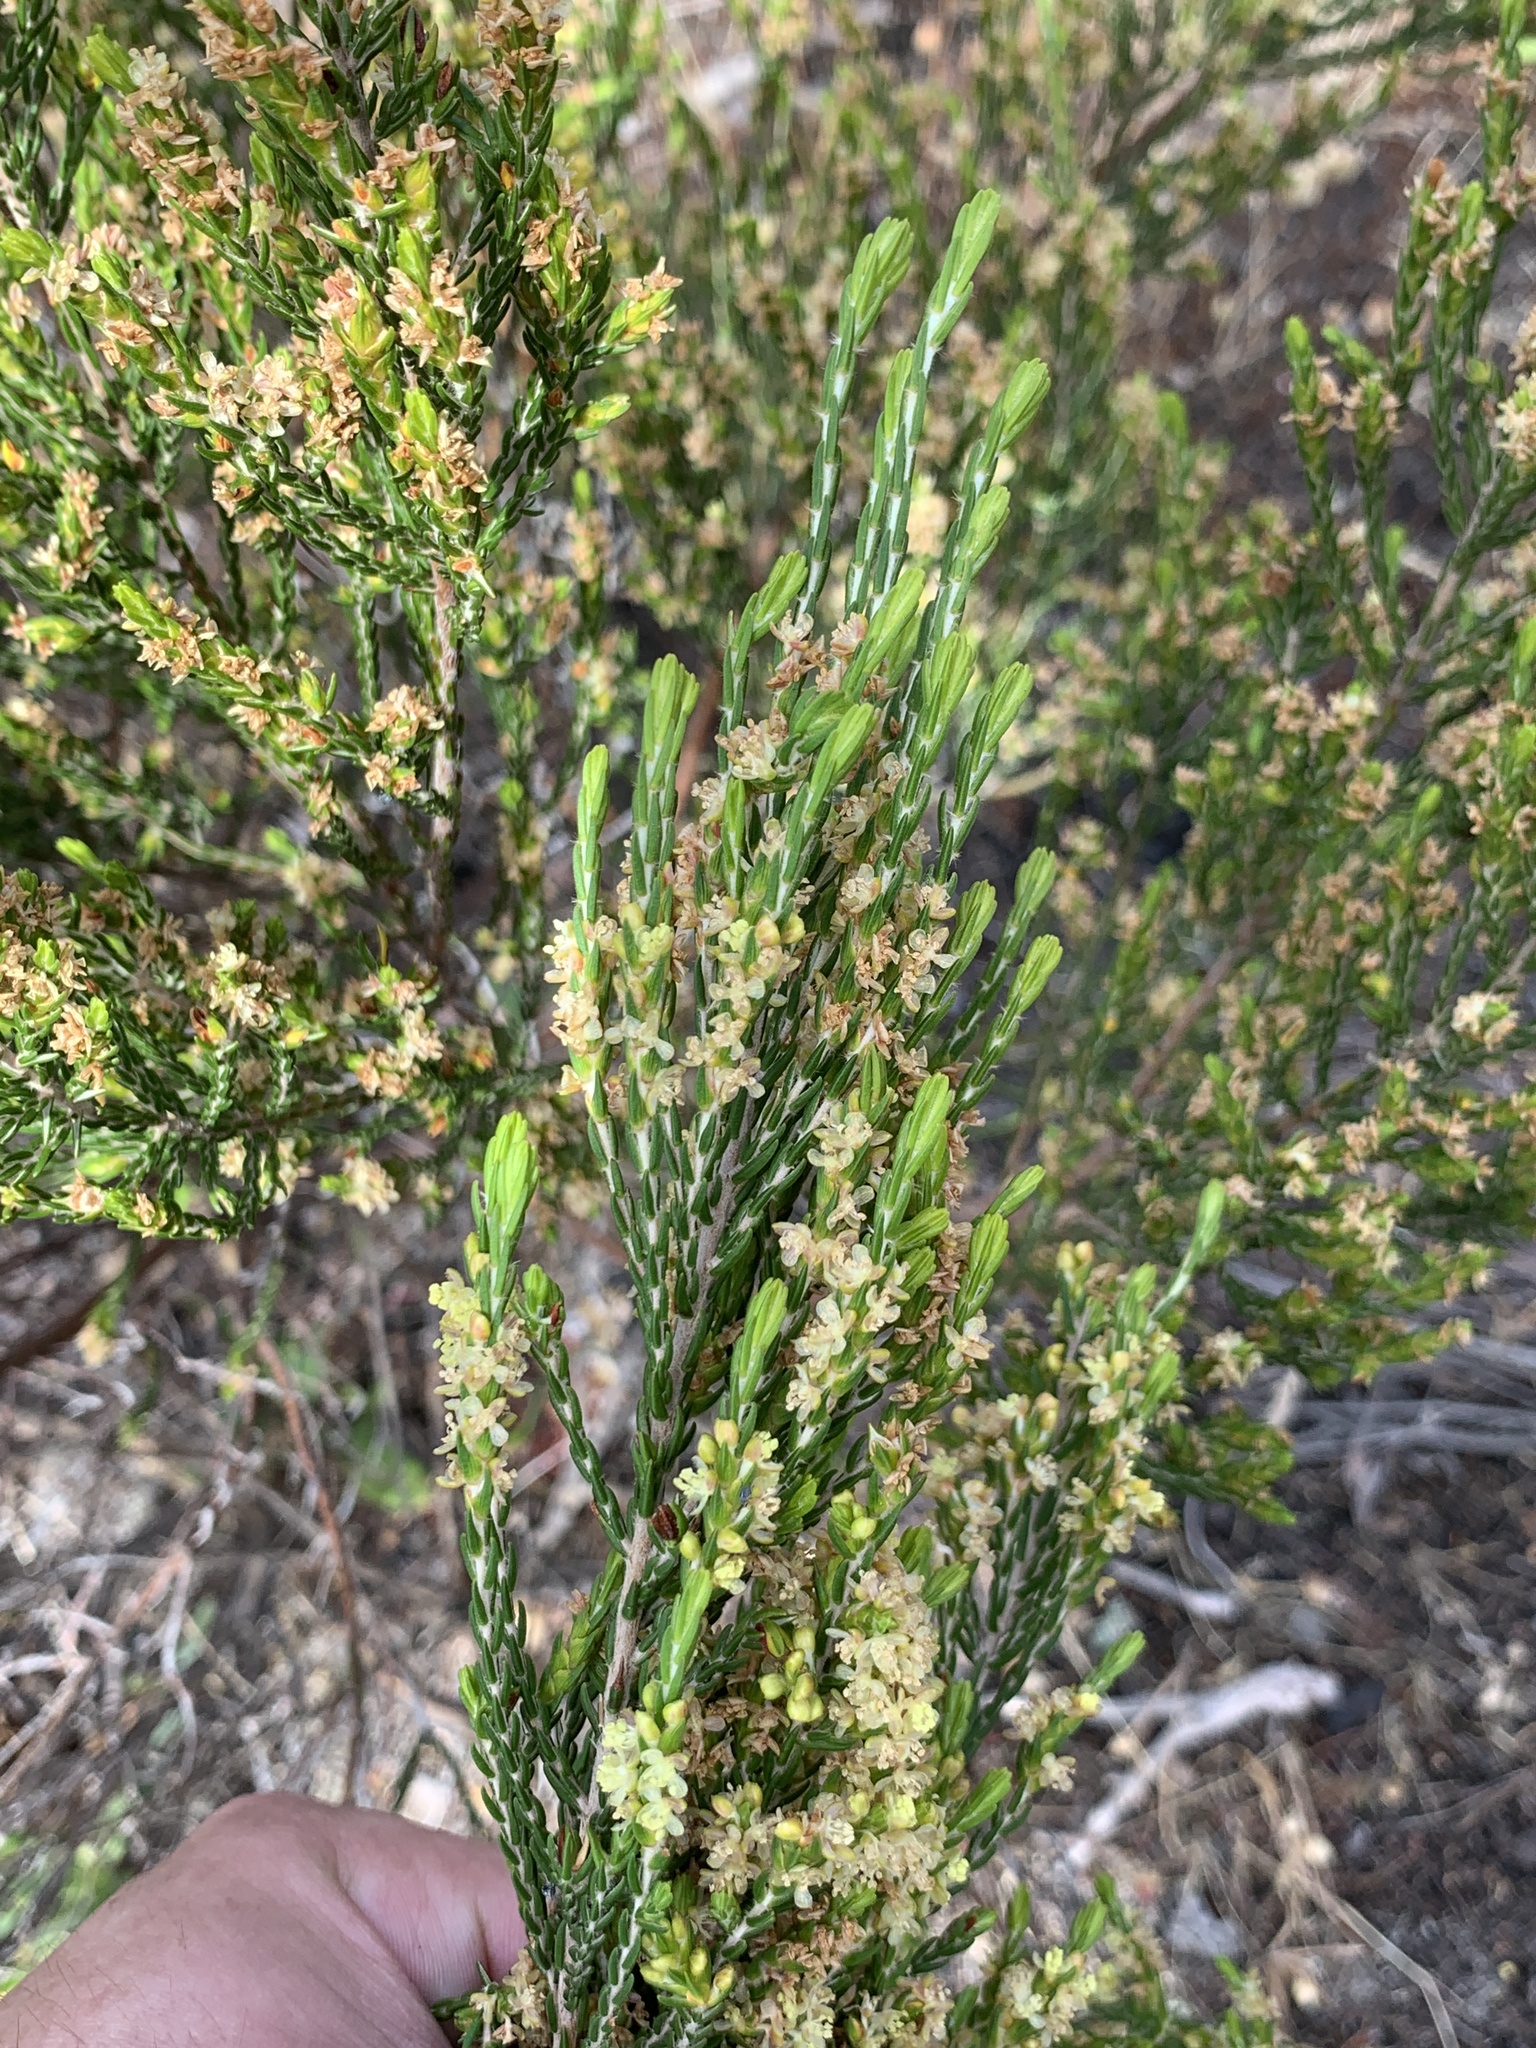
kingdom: Plantae
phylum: Tracheophyta
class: Magnoliopsida
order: Malvales
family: Thymelaeaceae
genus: Passerina
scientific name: Passerina corymbosa
